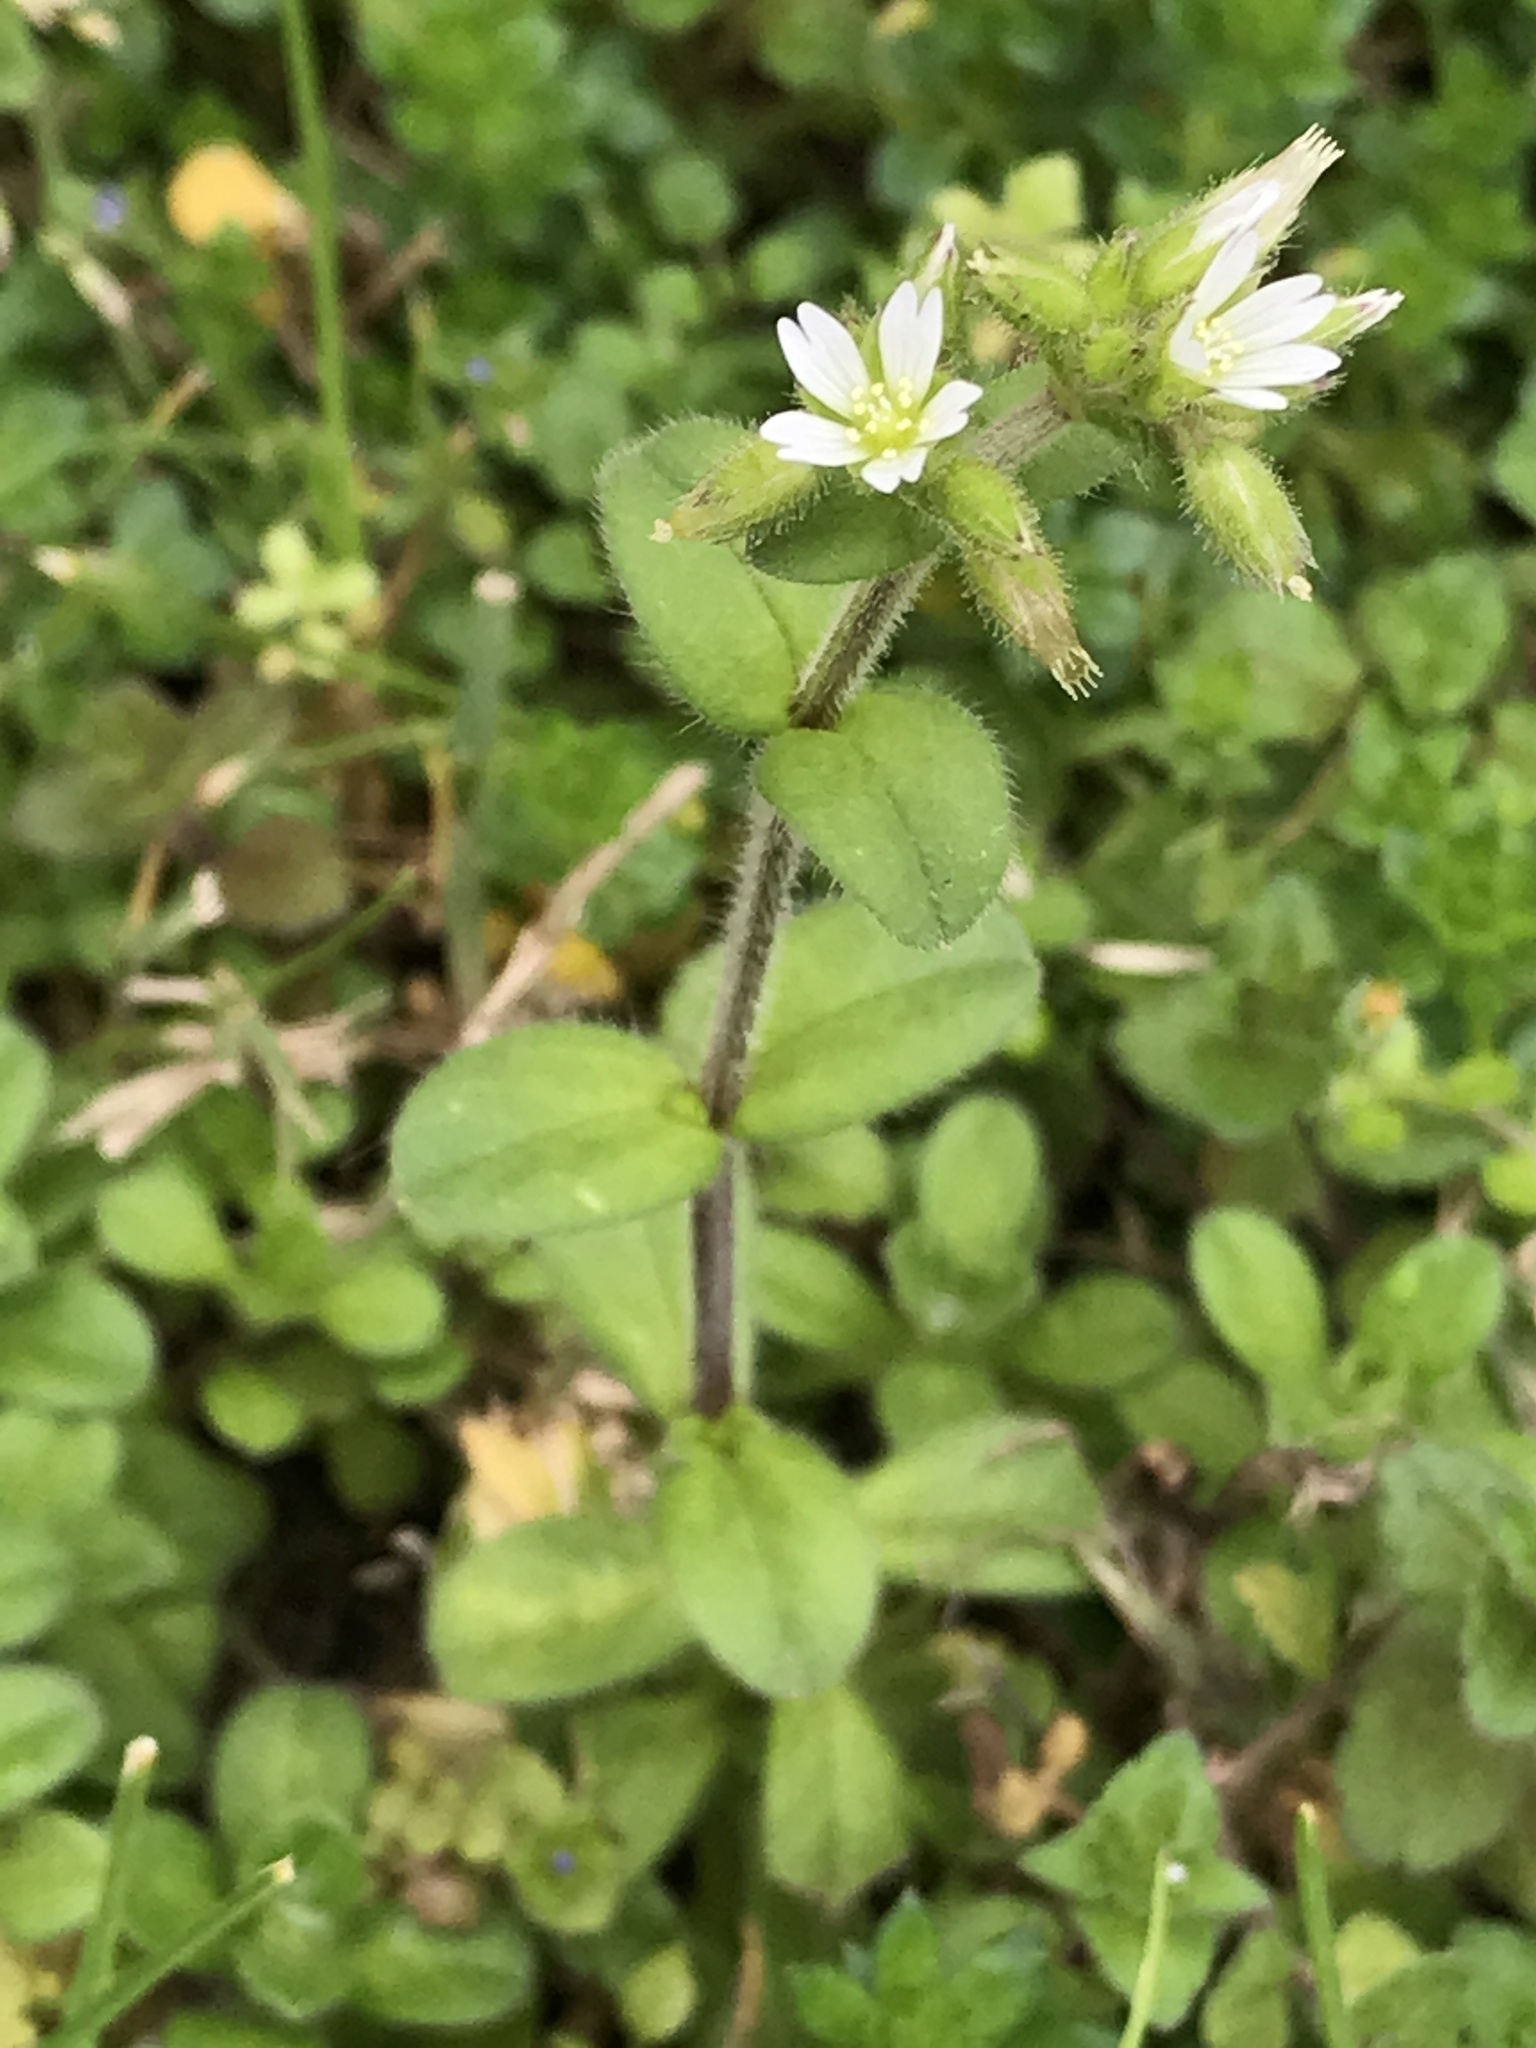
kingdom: Plantae
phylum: Tracheophyta
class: Magnoliopsida
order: Caryophyllales
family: Caryophyllaceae
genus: Cerastium
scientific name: Cerastium glomeratum
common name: Sticky chickweed
